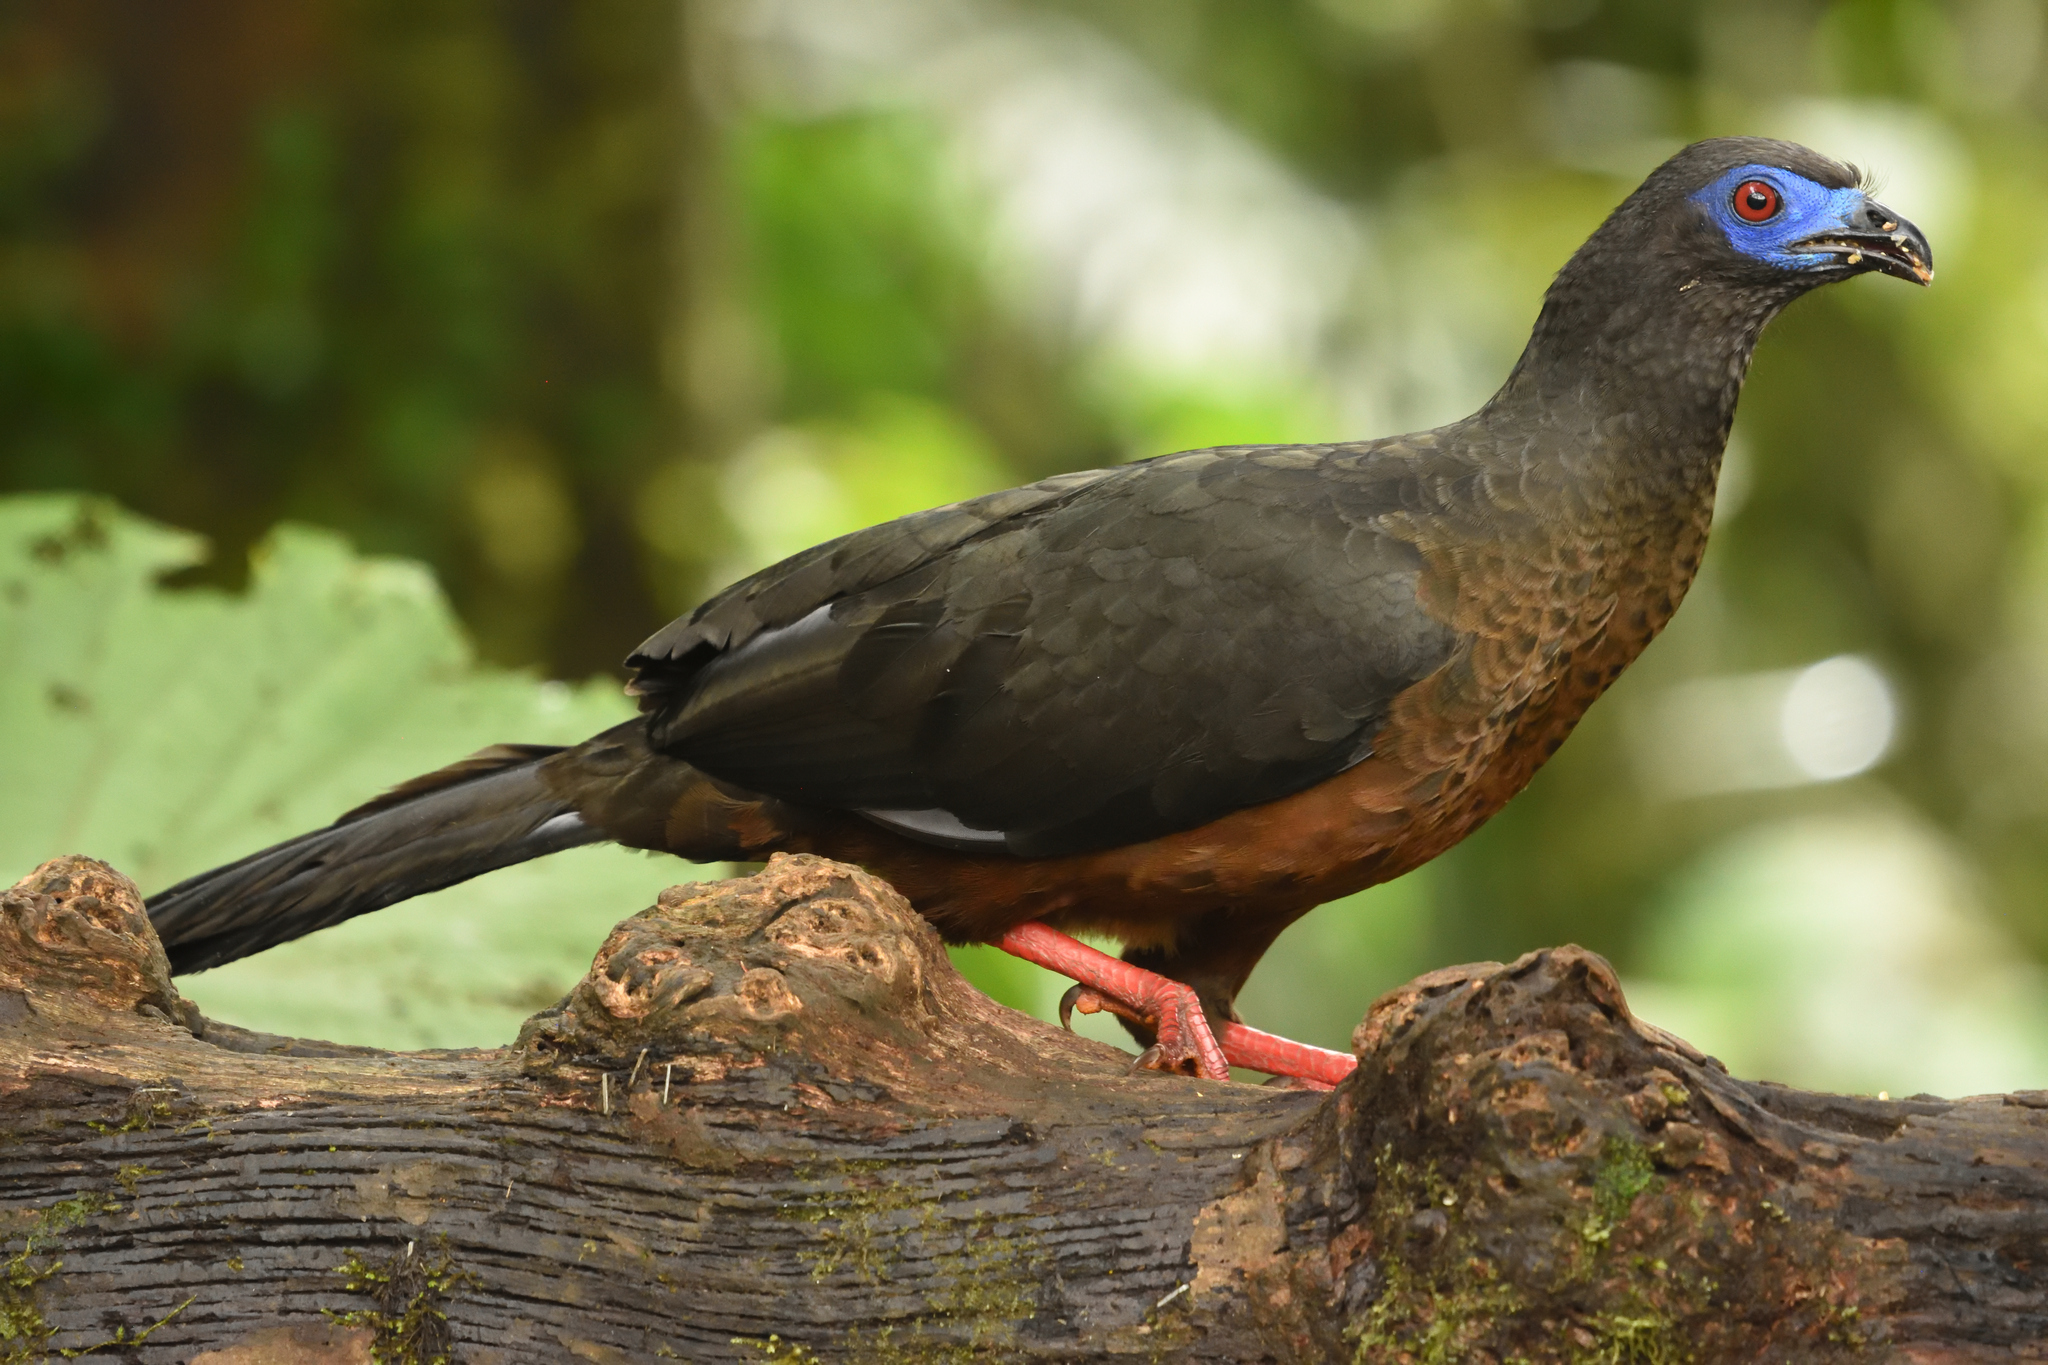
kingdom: Animalia
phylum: Chordata
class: Aves
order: Galliformes
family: Cracidae
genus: Chamaepetes
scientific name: Chamaepetes goudotii
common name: Sickle-winged guan
